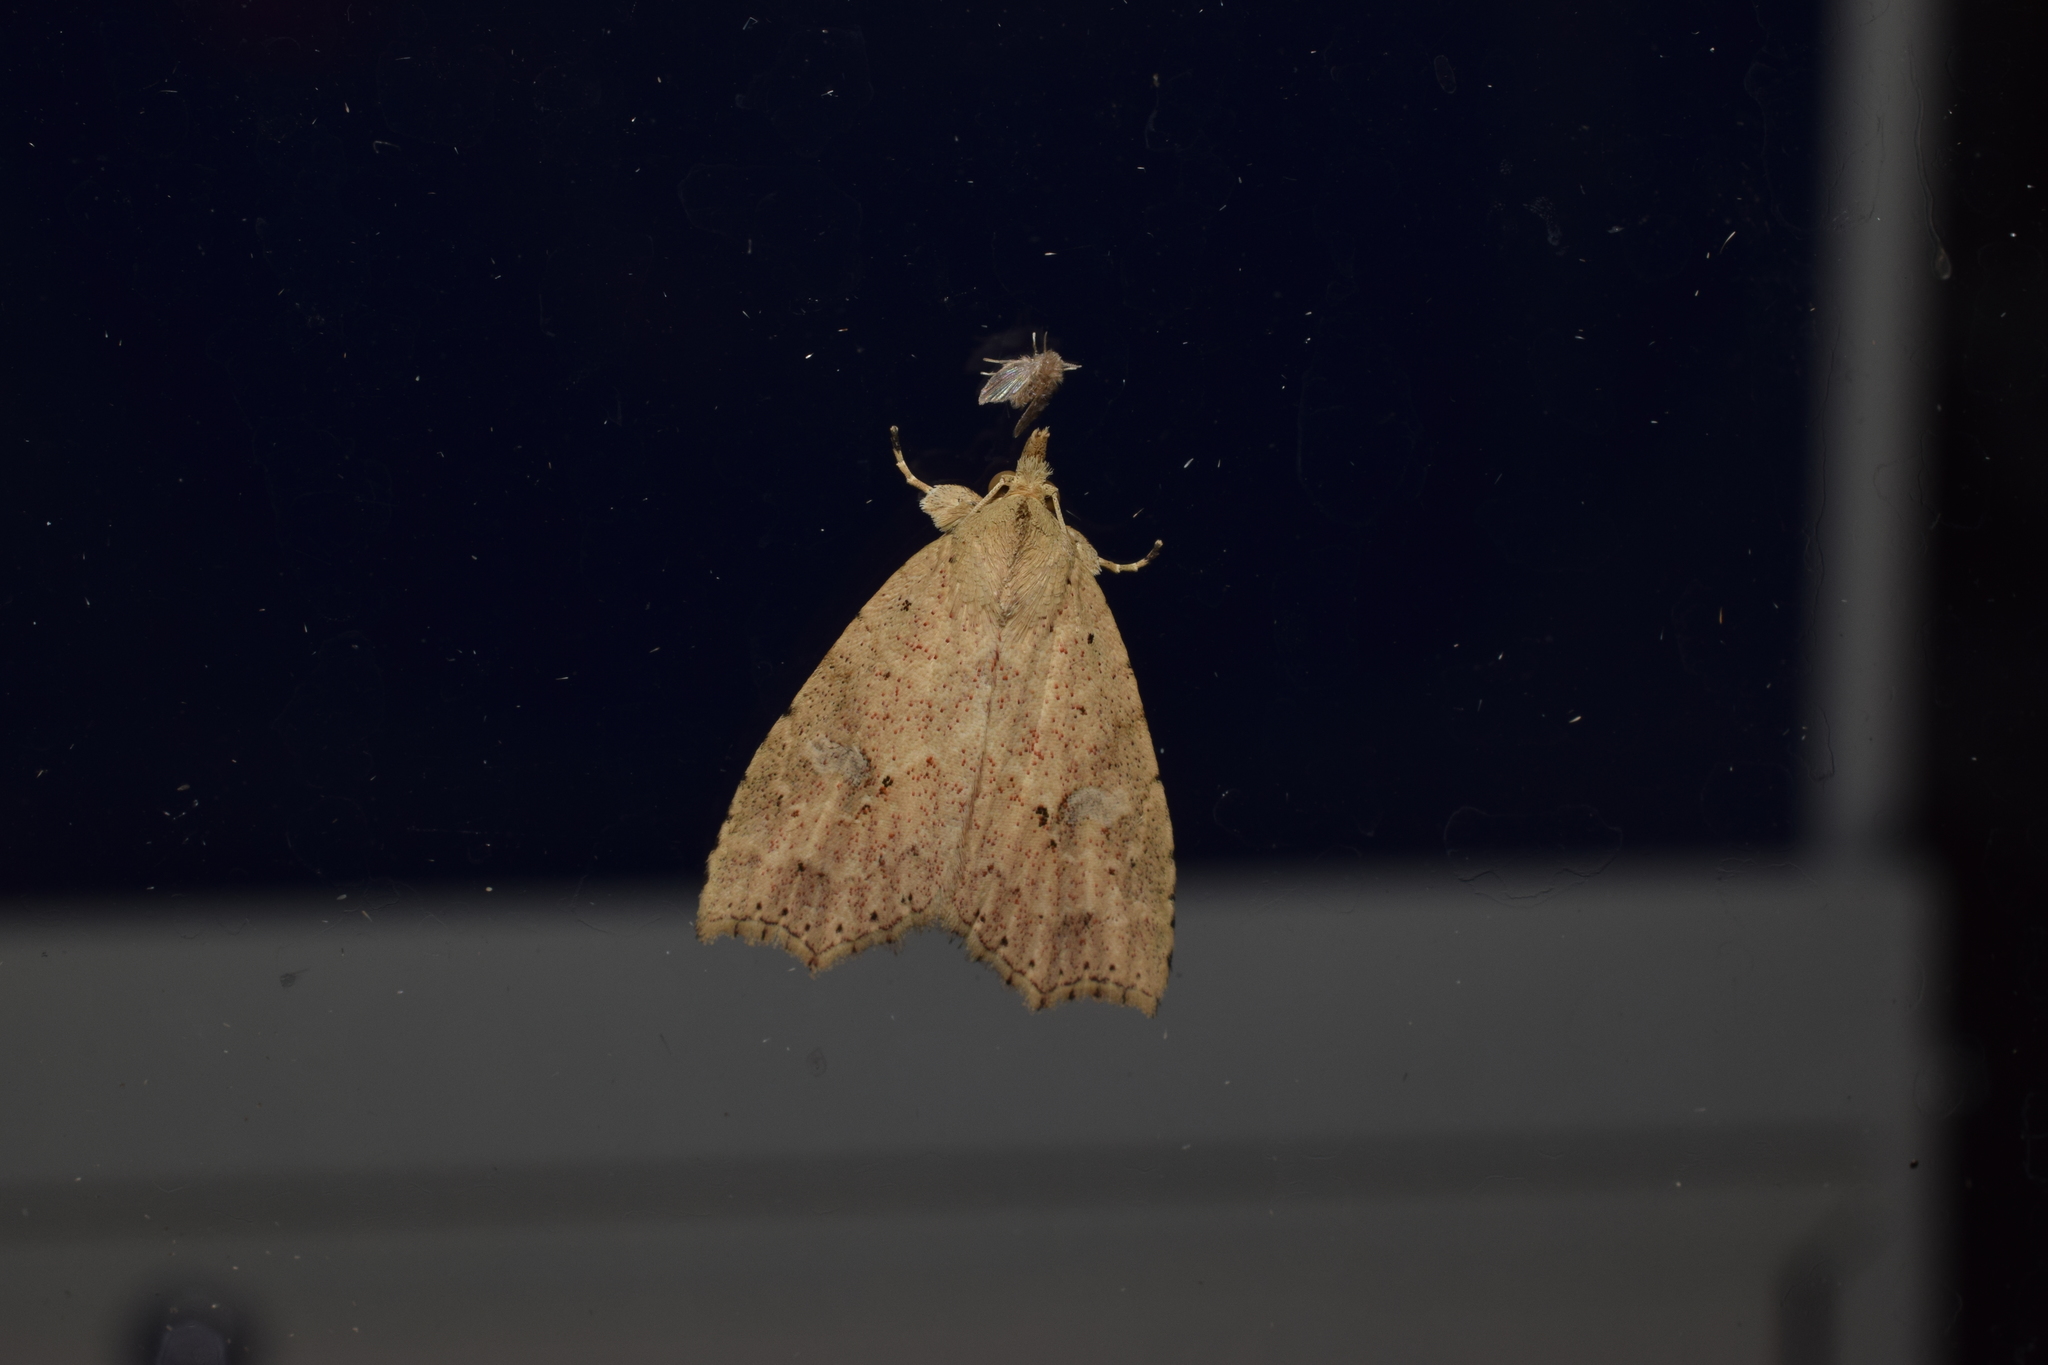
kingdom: Animalia
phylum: Arthropoda
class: Insecta
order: Lepidoptera
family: Erebidae
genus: Olulis
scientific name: Olulis puncticinctalis
